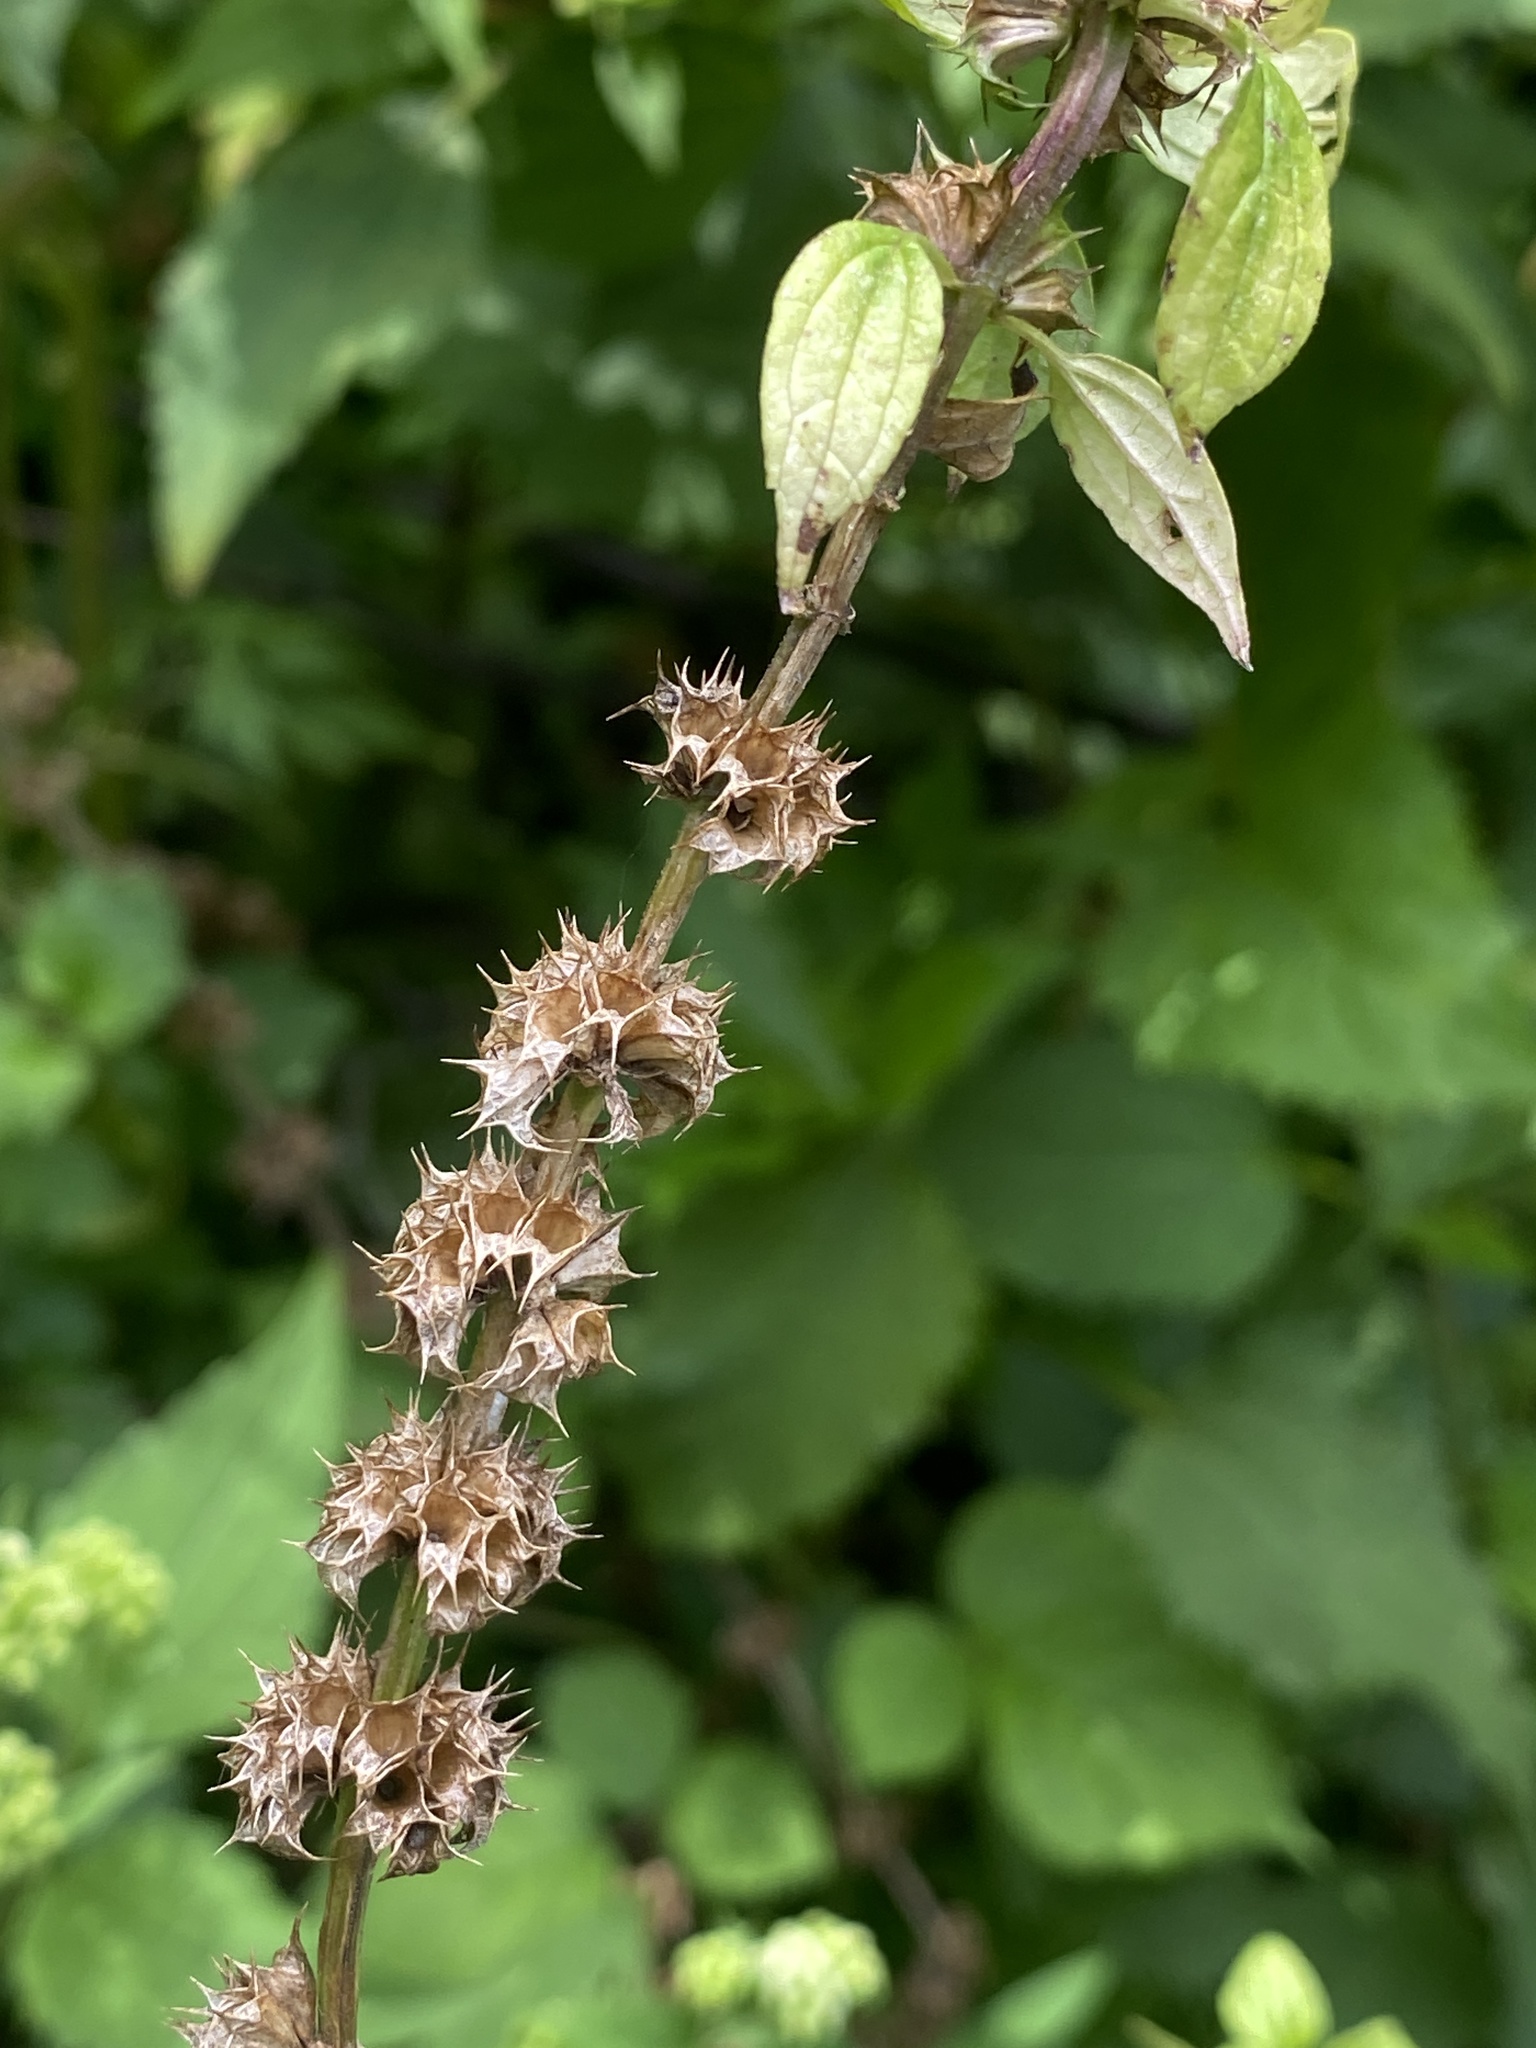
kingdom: Plantae
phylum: Tracheophyta
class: Magnoliopsida
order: Lamiales
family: Lamiaceae
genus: Leonurus
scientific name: Leonurus cardiaca
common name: Motherwort
